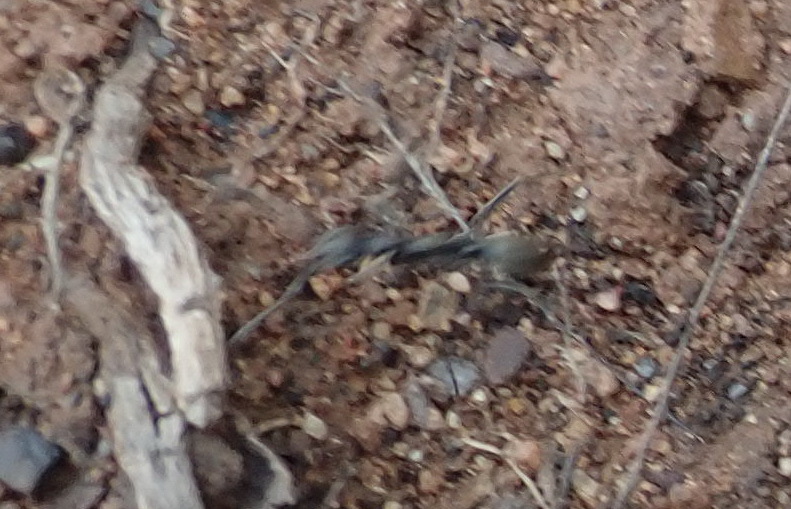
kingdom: Animalia
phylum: Arthropoda
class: Insecta
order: Hymenoptera
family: Formicidae
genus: Ophthalmopone
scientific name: Ophthalmopone
